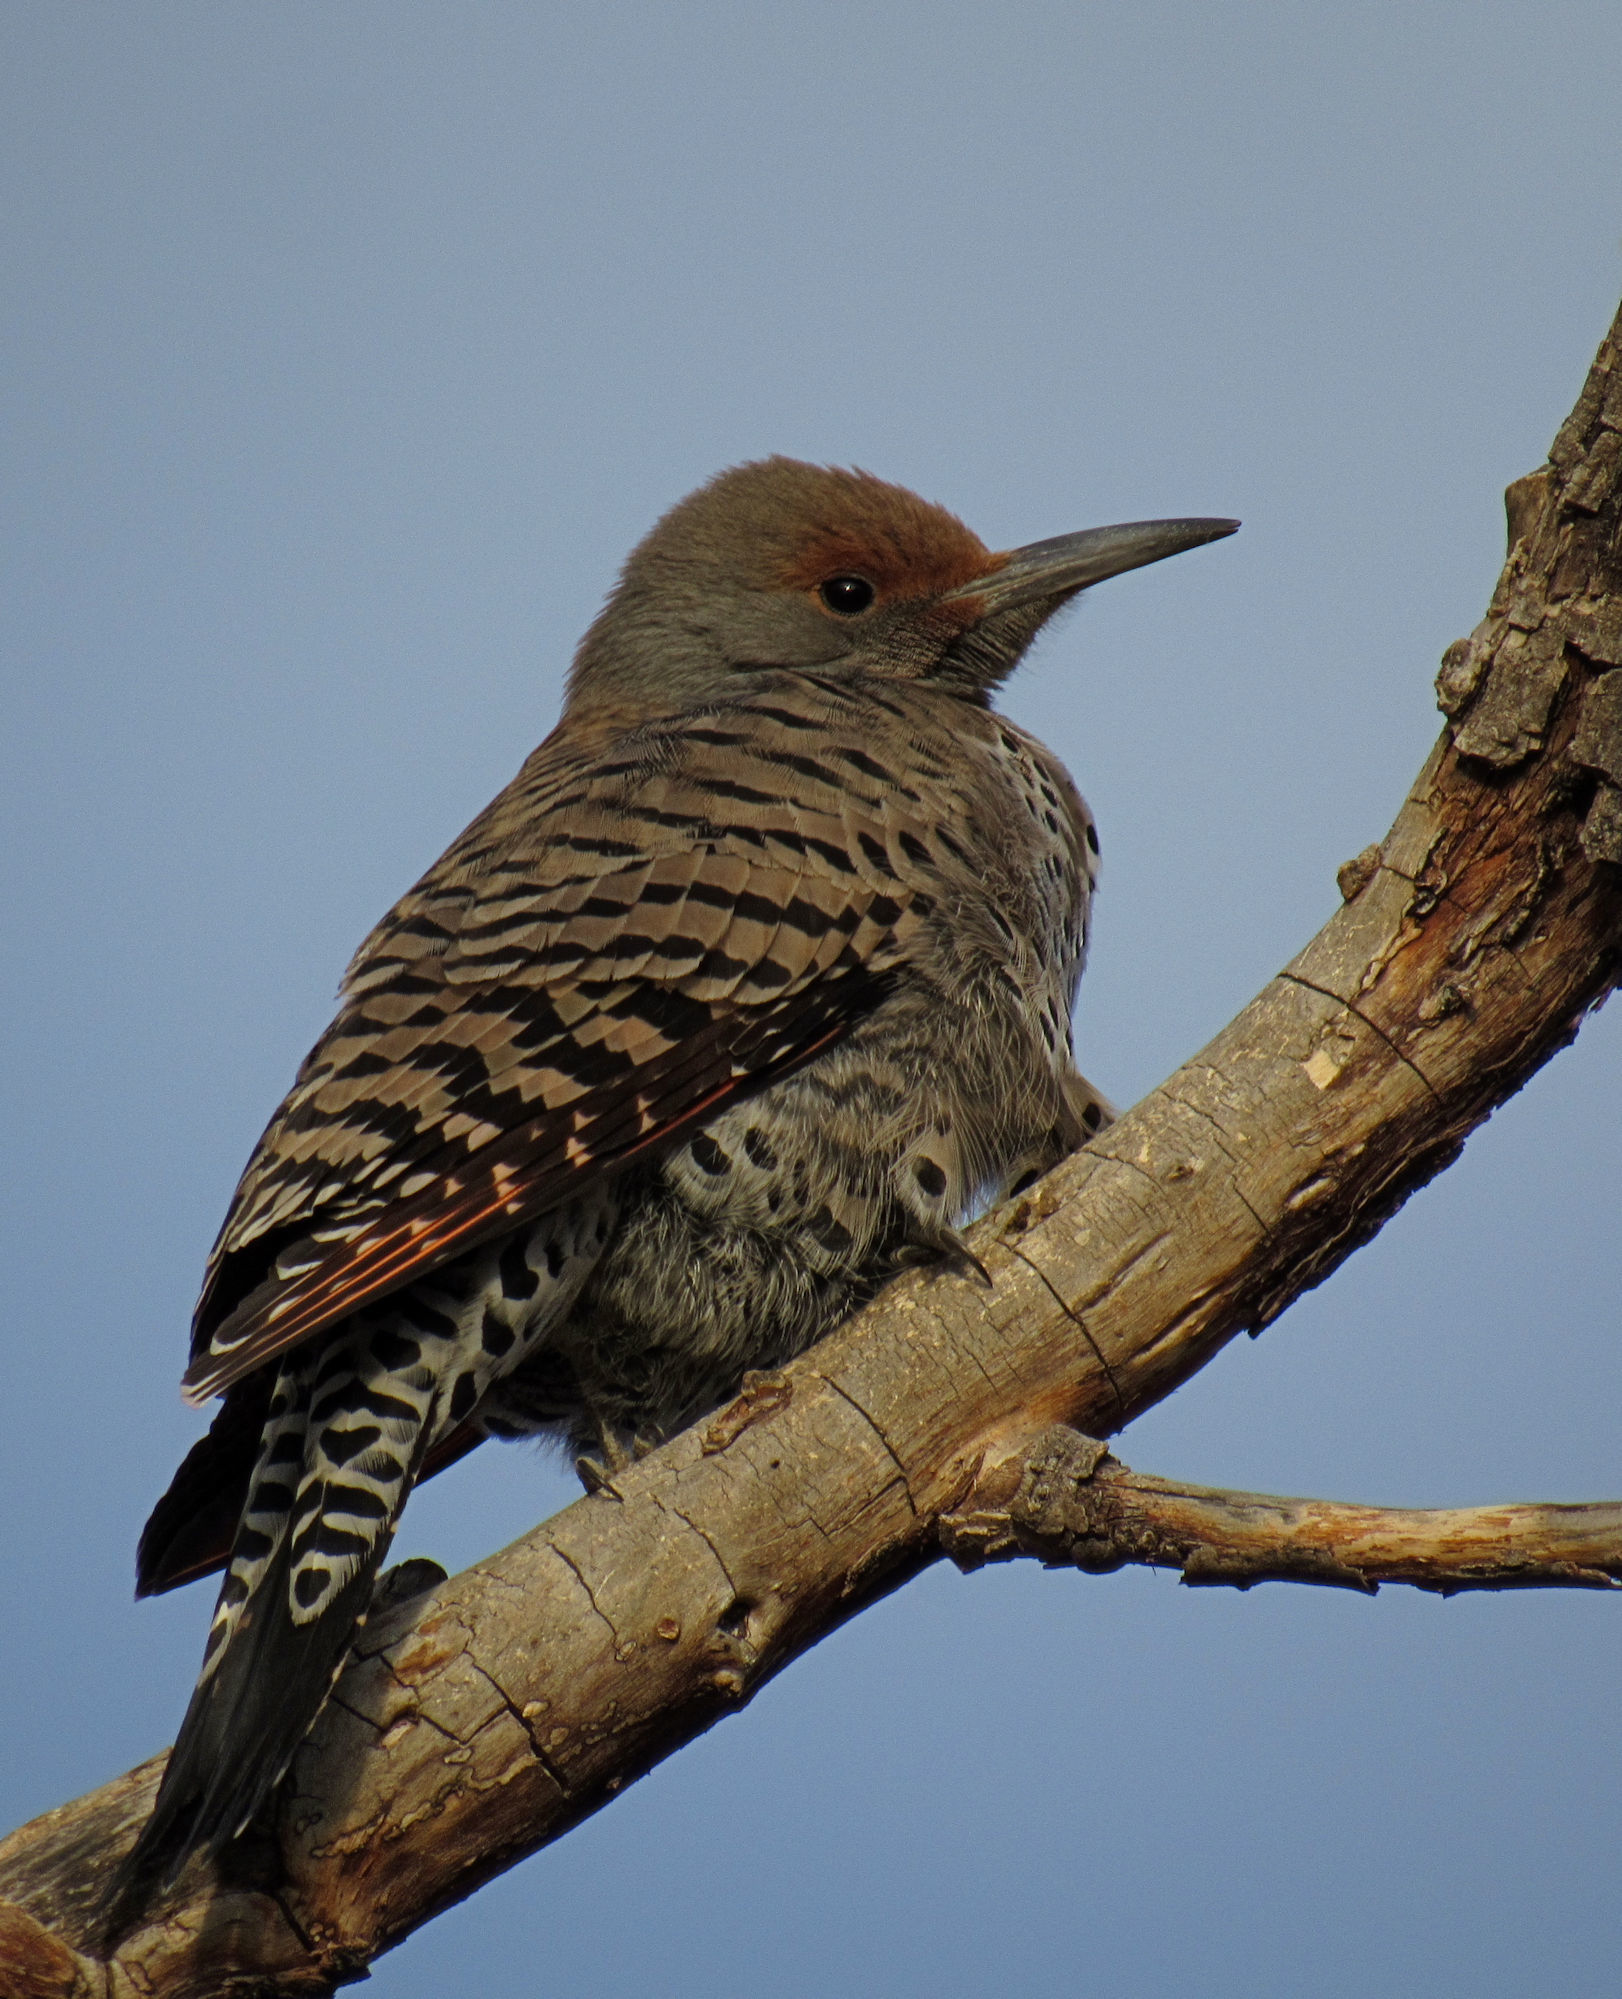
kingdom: Animalia
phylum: Chordata
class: Aves
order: Piciformes
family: Picidae
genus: Colaptes
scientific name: Colaptes auratus
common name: Northern flicker
